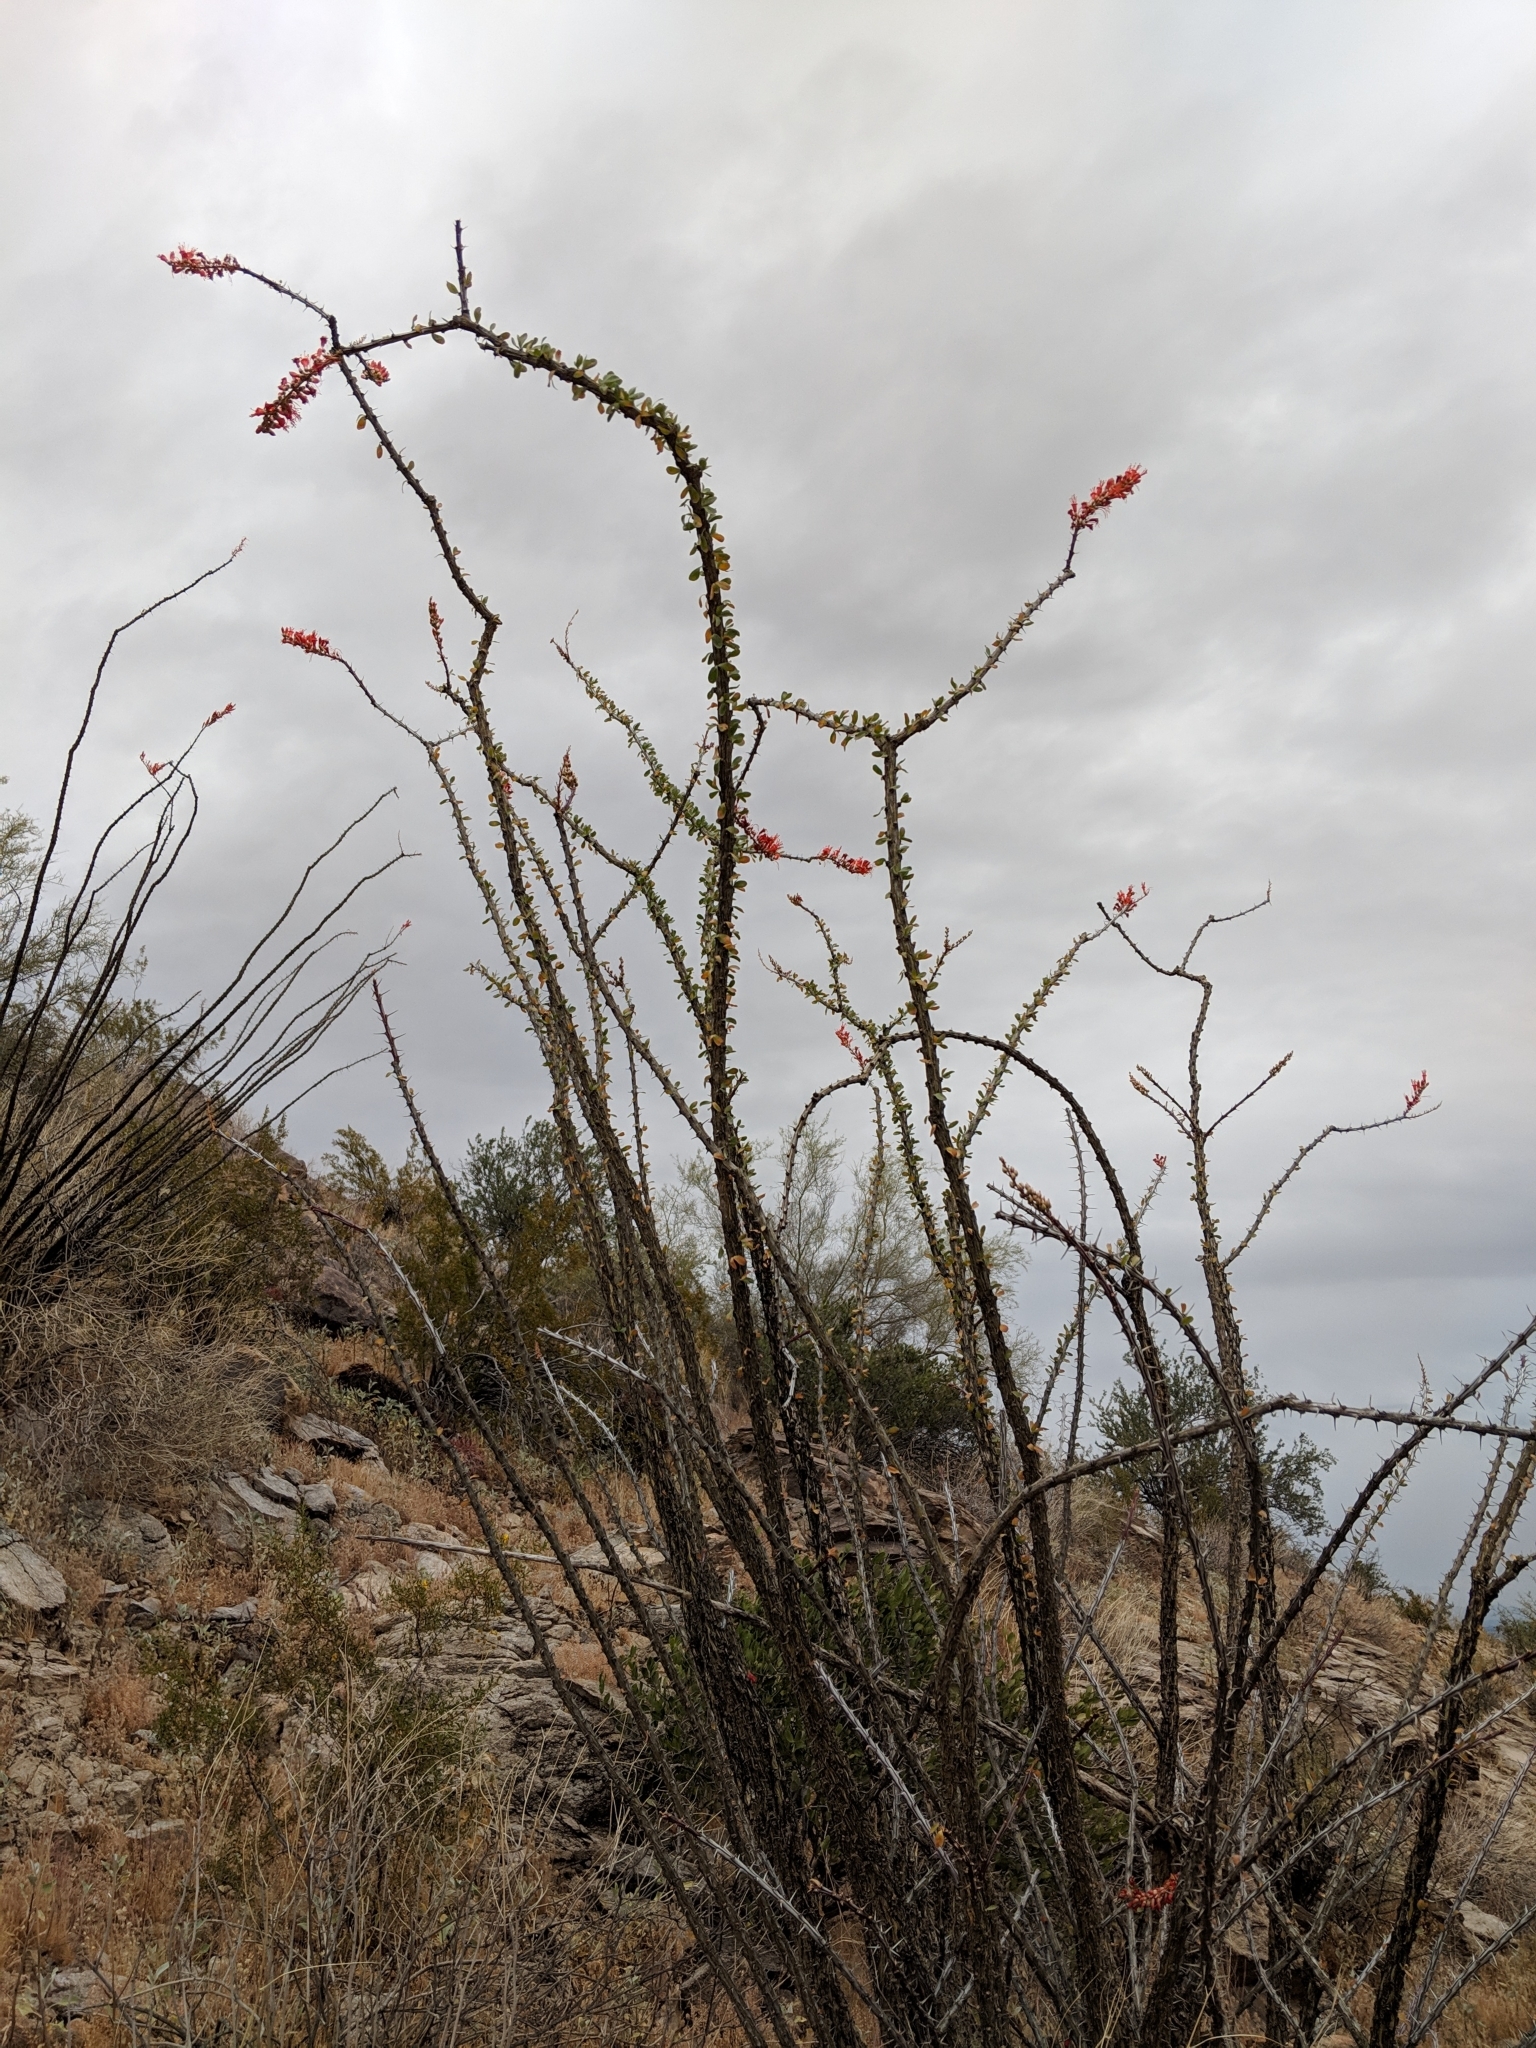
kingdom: Plantae
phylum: Tracheophyta
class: Magnoliopsida
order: Ericales
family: Fouquieriaceae
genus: Fouquieria
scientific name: Fouquieria splendens
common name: Vine-cactus
